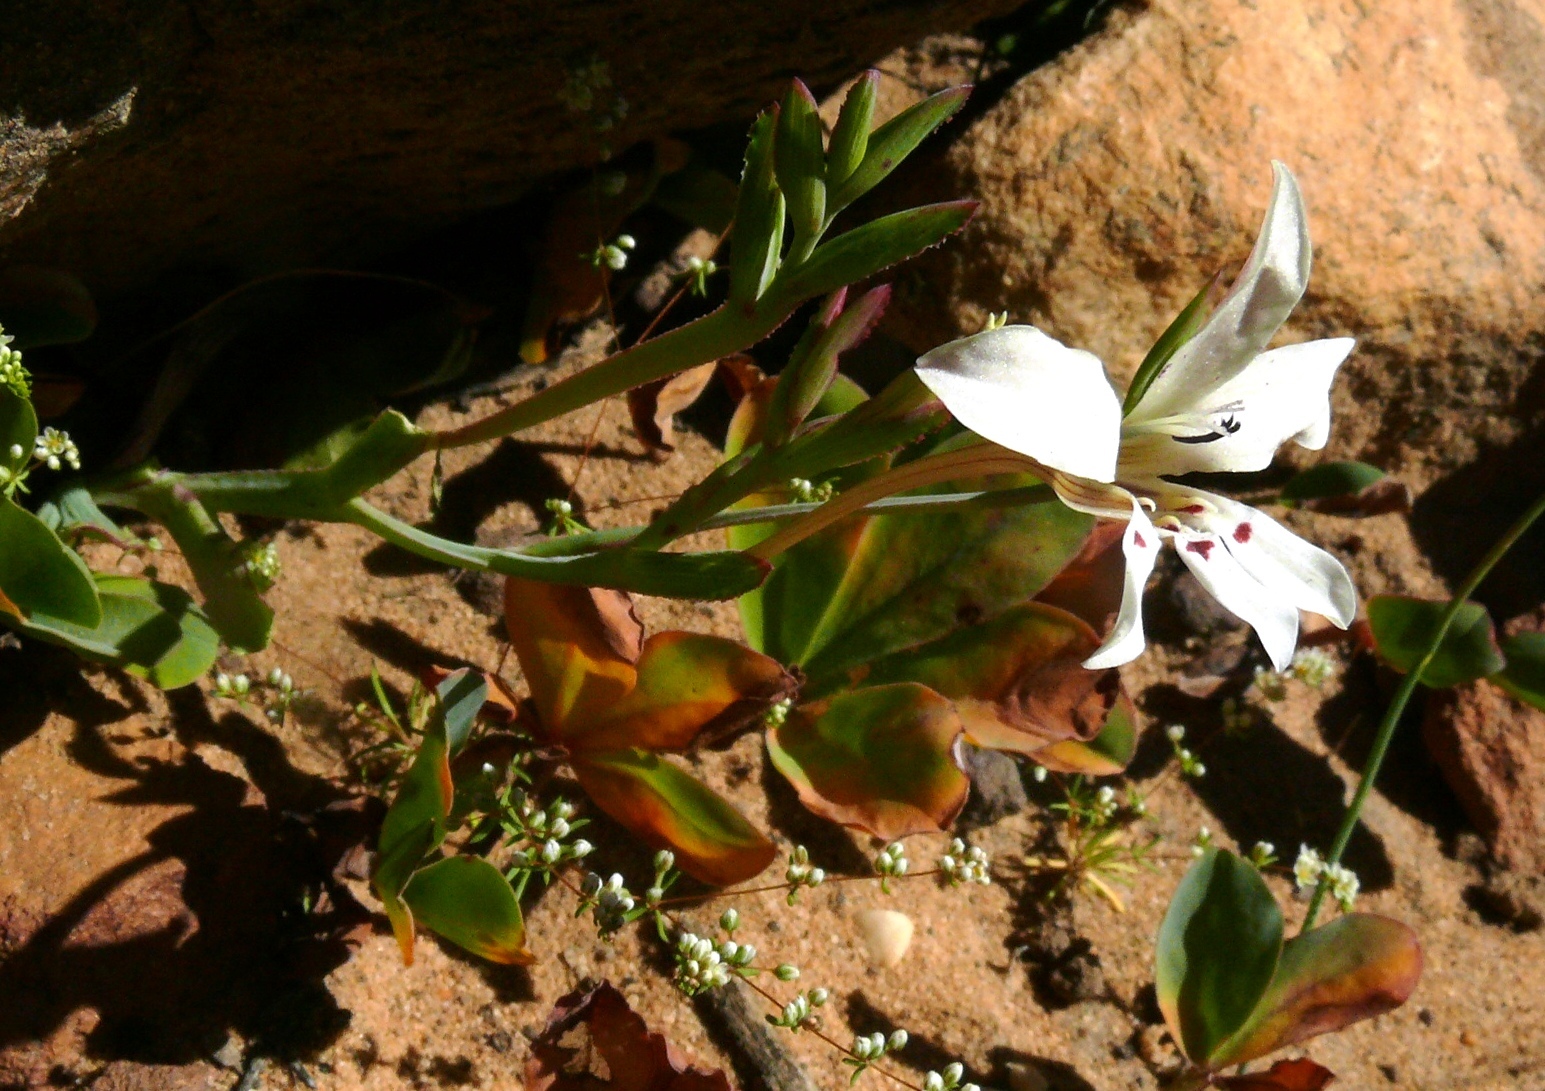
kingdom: Plantae
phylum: Tracheophyta
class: Liliopsida
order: Asparagales
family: Iridaceae
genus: Lapeirousia
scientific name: Lapeirousia fabricii
